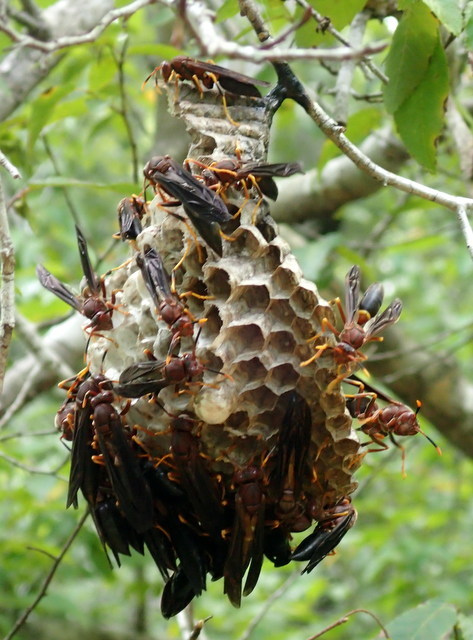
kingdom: Animalia
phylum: Arthropoda
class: Insecta
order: Hymenoptera
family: Eumenidae
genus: Polistes
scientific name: Polistes annularis
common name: Ringed paper wasp
